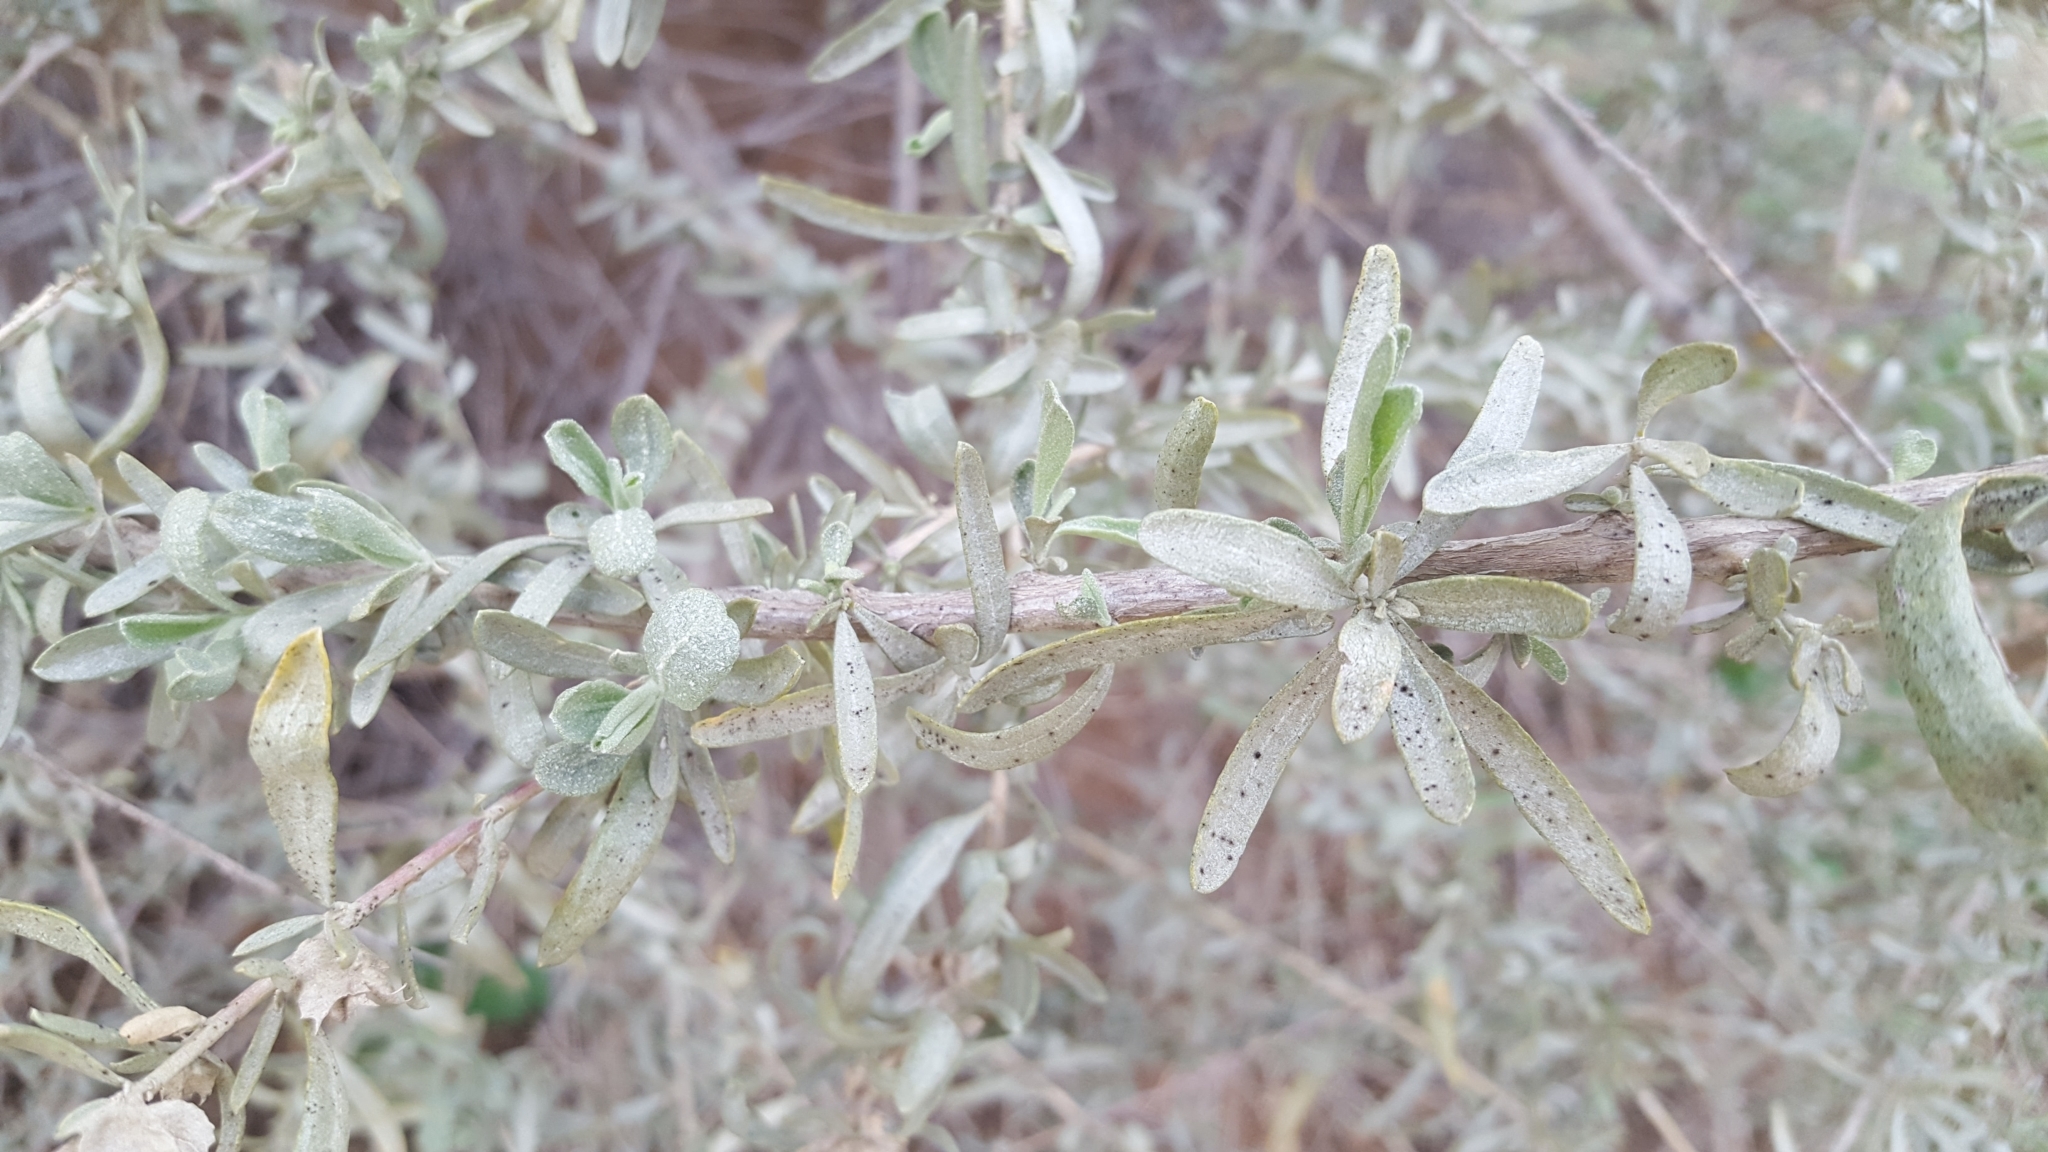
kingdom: Plantae
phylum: Tracheophyta
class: Magnoliopsida
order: Caryophyllales
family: Amaranthaceae
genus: Atriplex
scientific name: Atriplex canescens
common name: Four-wing saltbush
